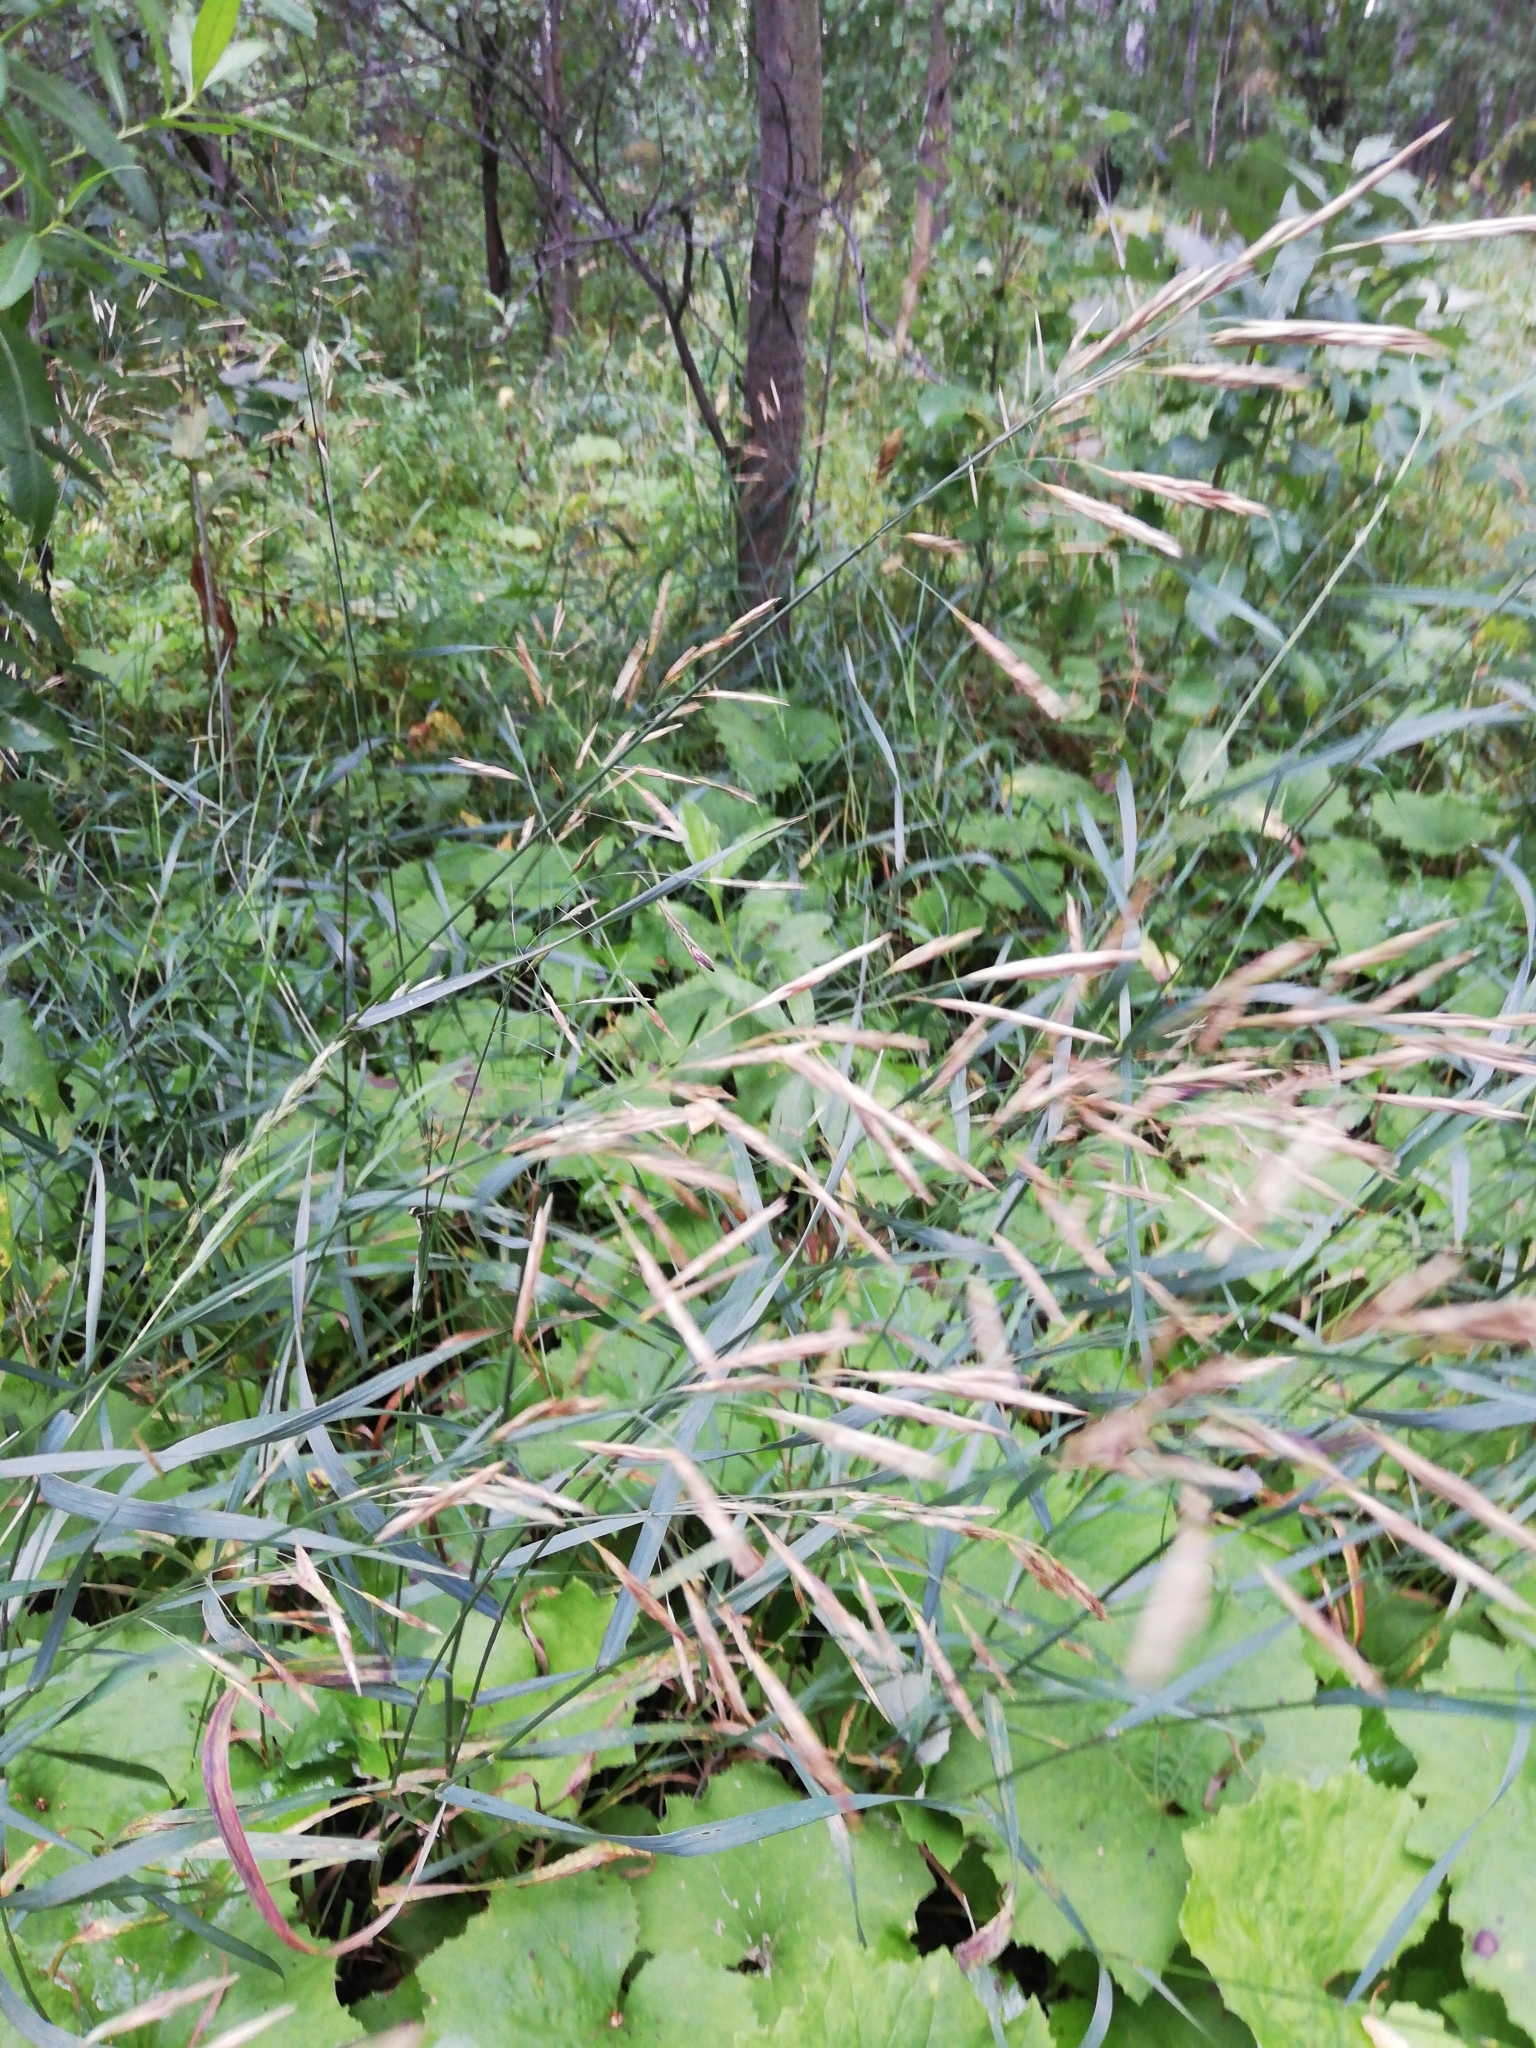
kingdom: Plantae
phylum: Tracheophyta
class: Liliopsida
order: Poales
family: Poaceae
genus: Bromus
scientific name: Bromus inermis
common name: Smooth brome
